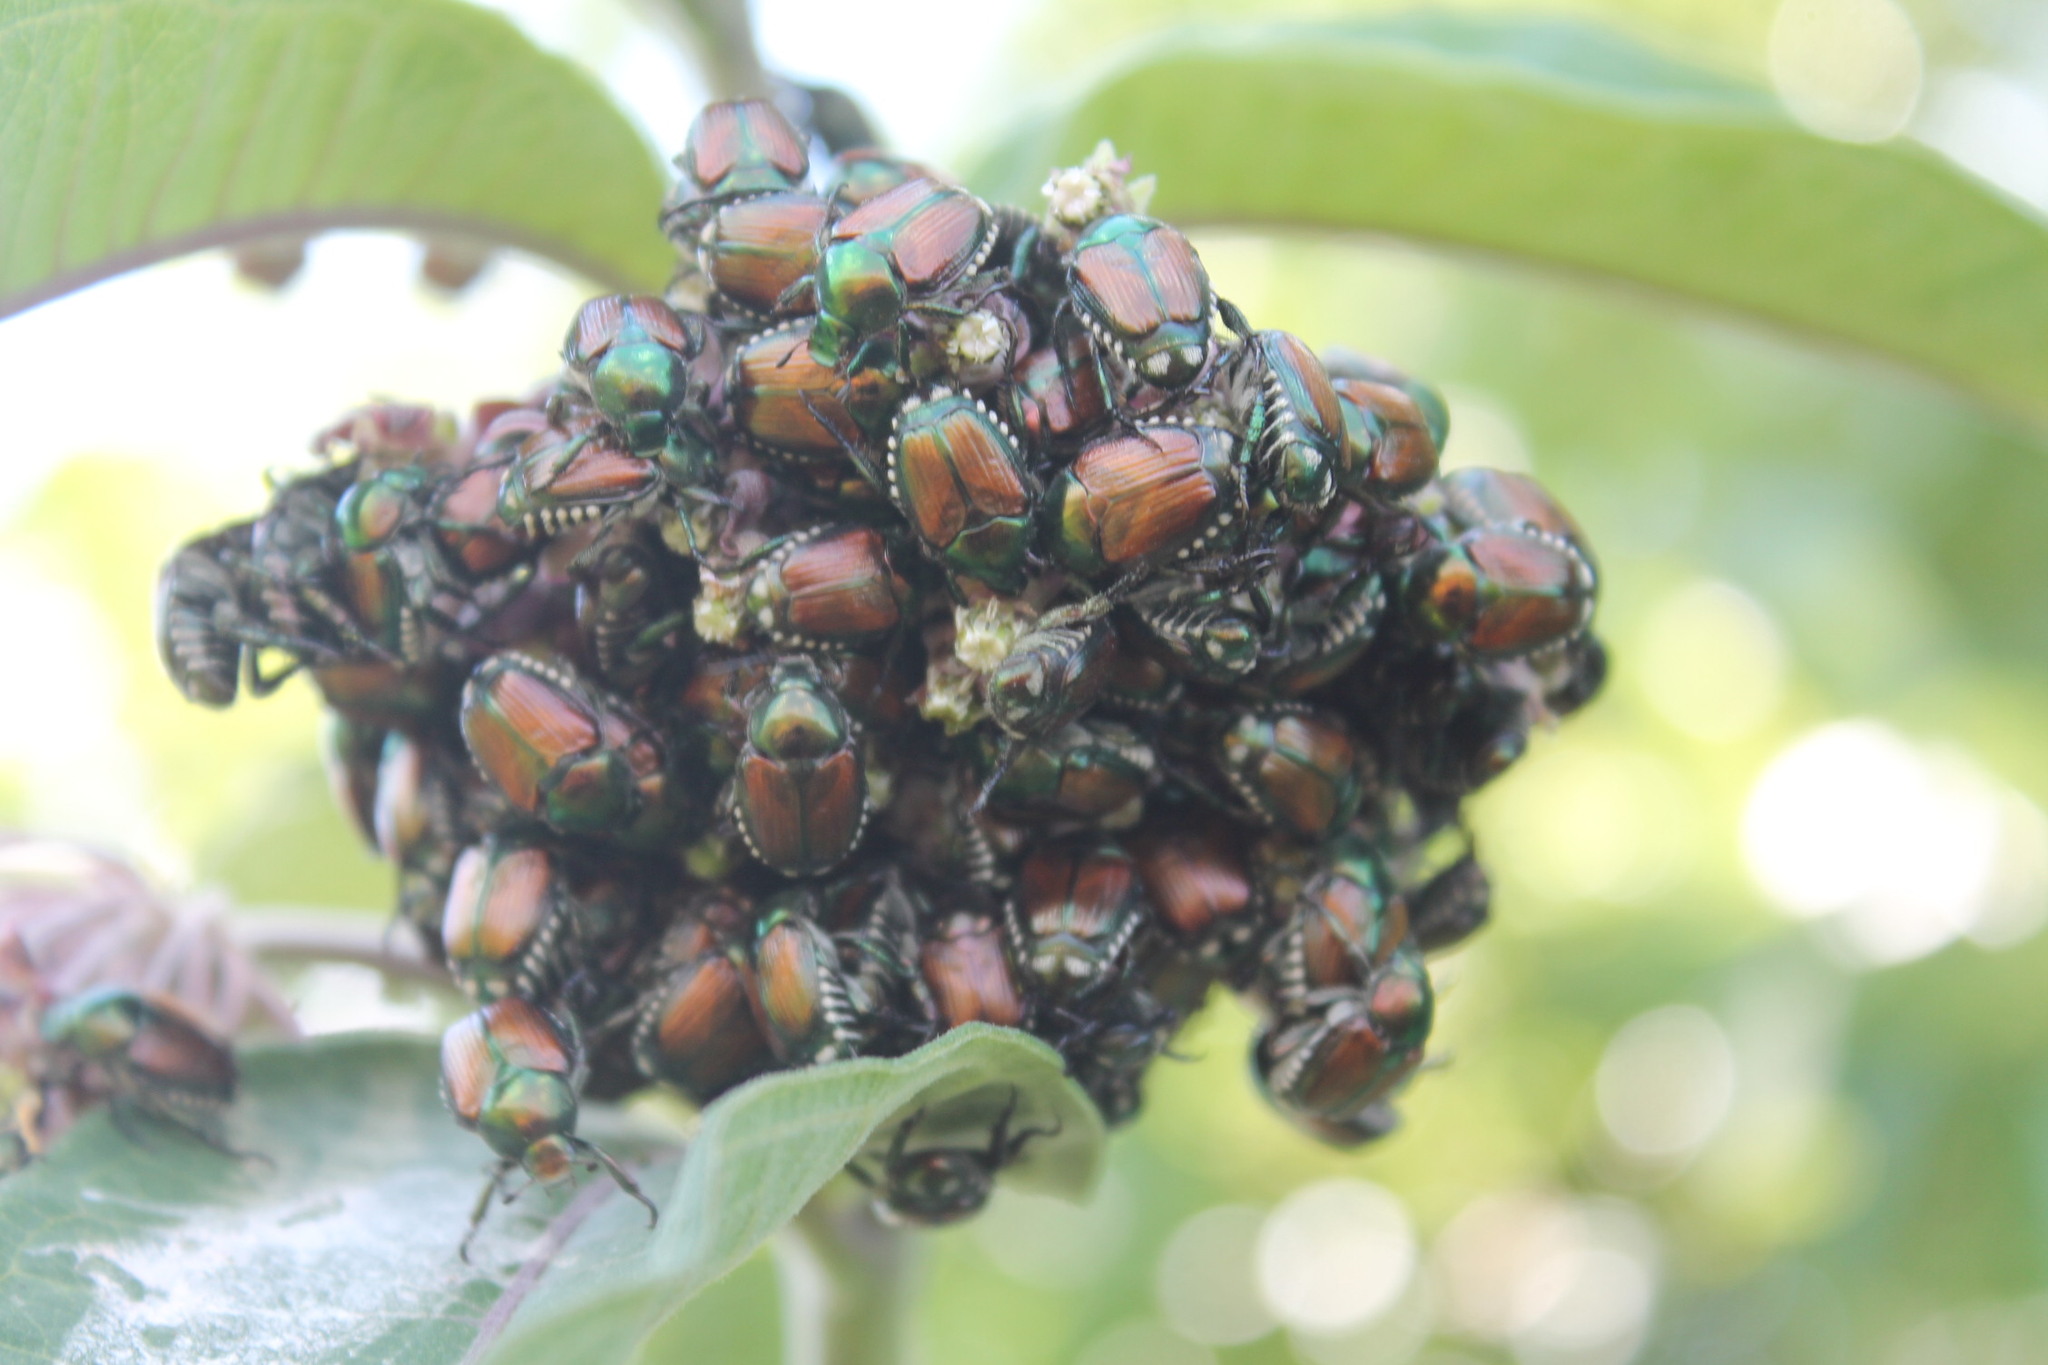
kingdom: Animalia
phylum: Arthropoda
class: Insecta
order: Coleoptera
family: Scarabaeidae
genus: Popillia
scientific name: Popillia japonica
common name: Japanese beetle
